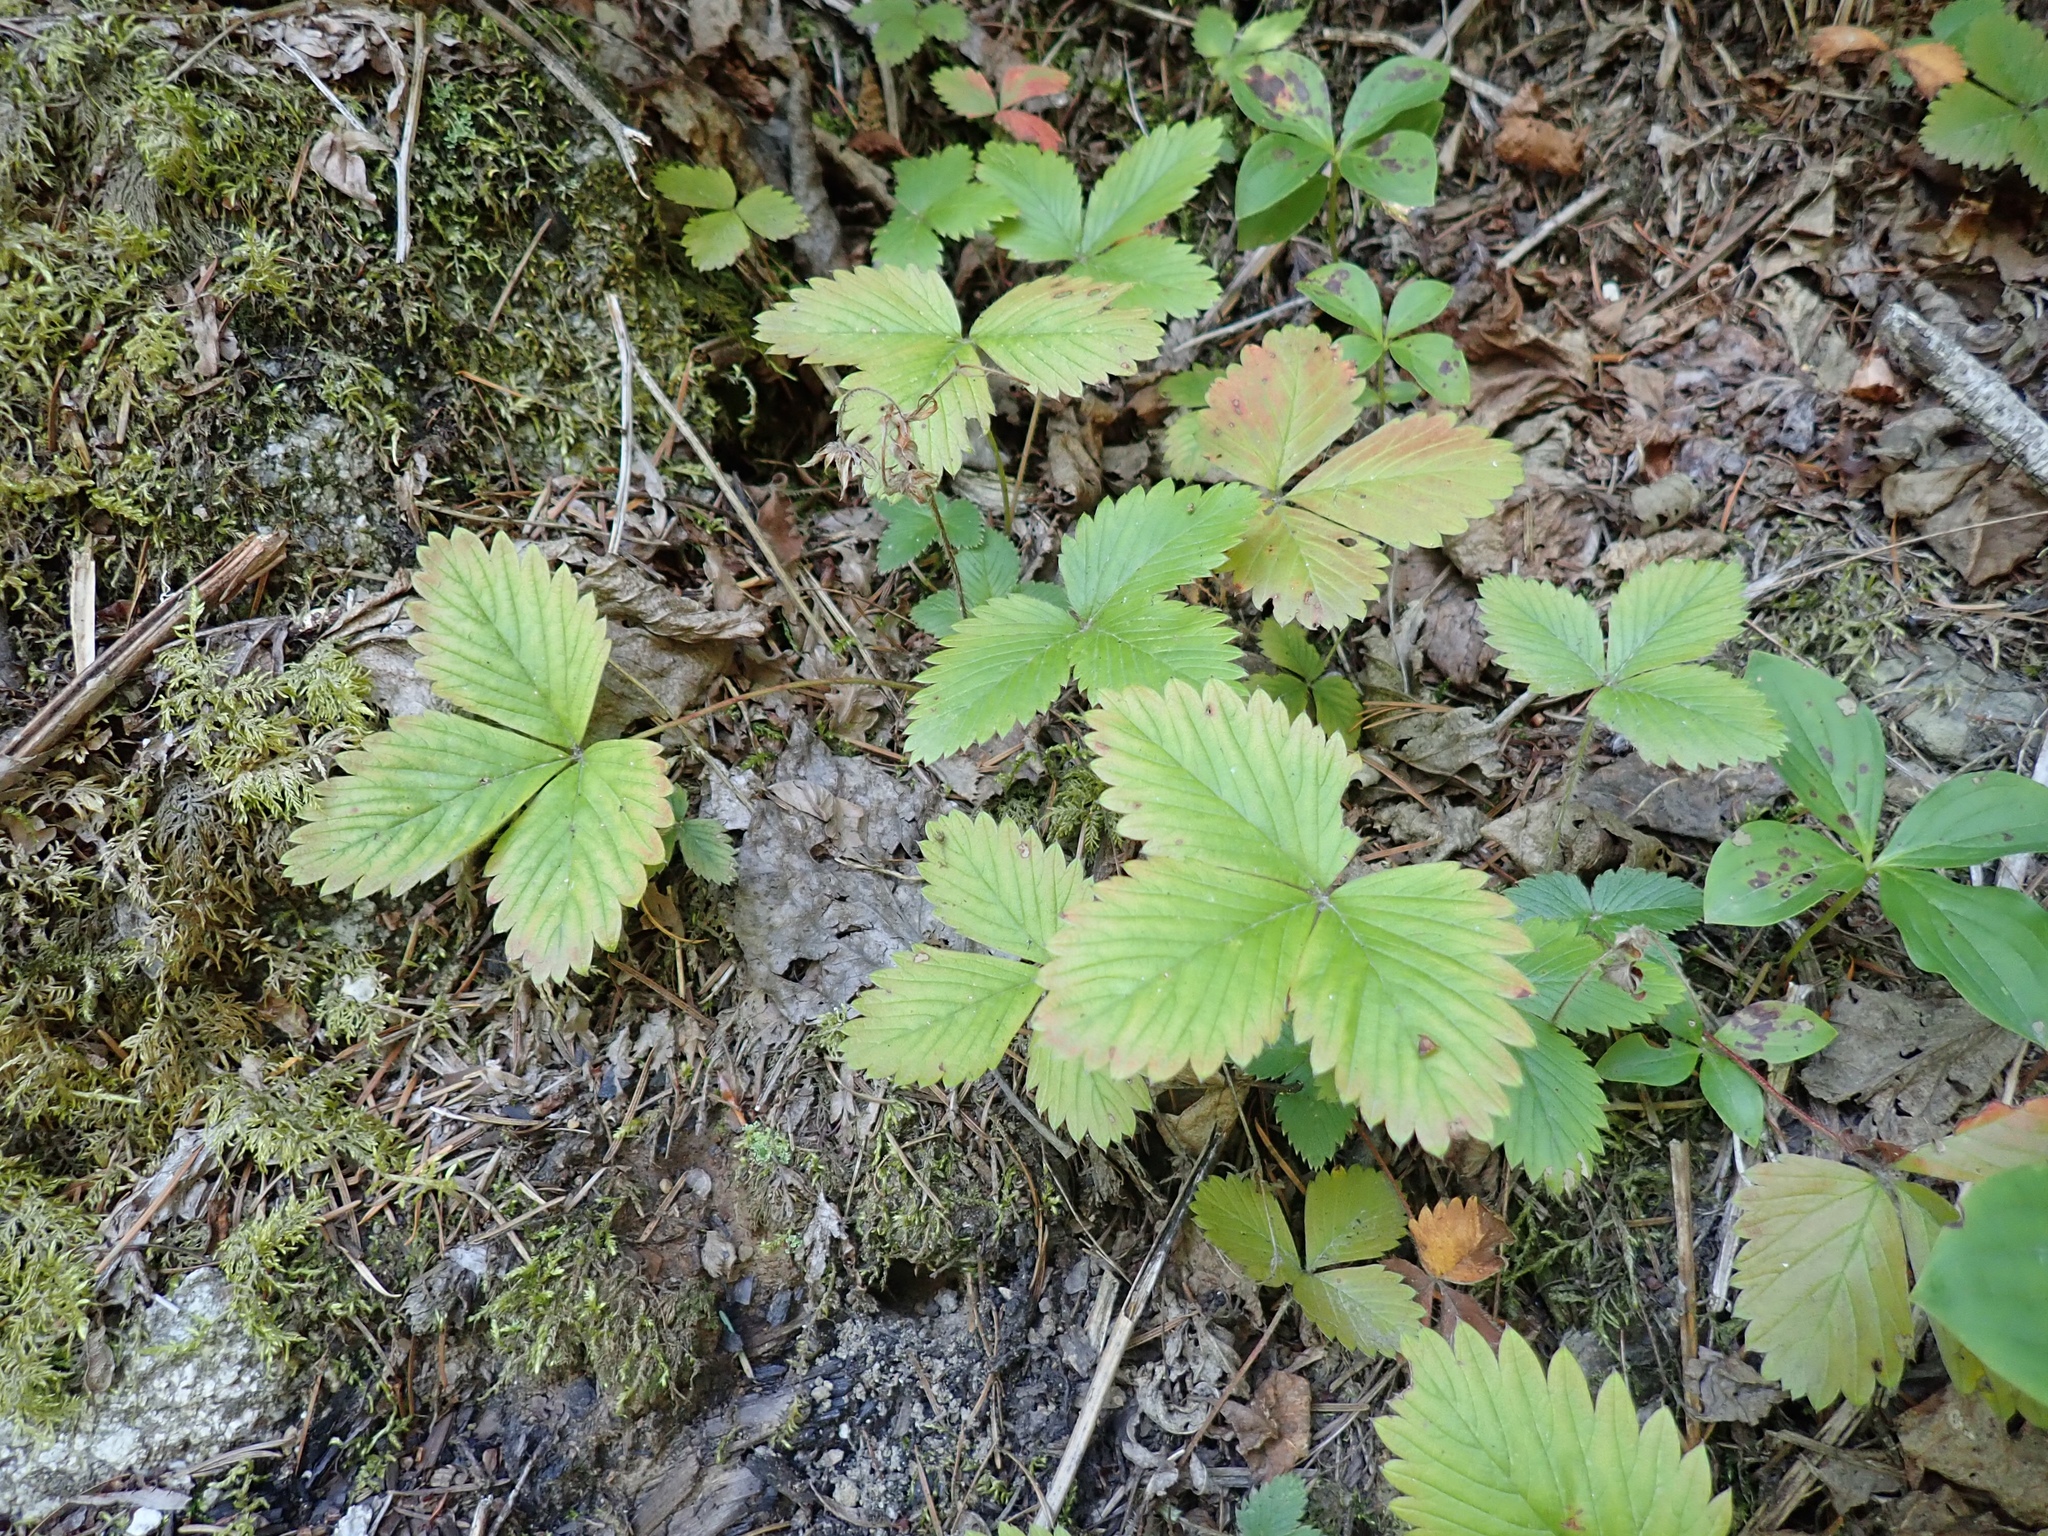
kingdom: Plantae
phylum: Tracheophyta
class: Magnoliopsida
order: Rosales
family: Rosaceae
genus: Fragaria
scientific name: Fragaria vesca
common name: Wild strawberry
